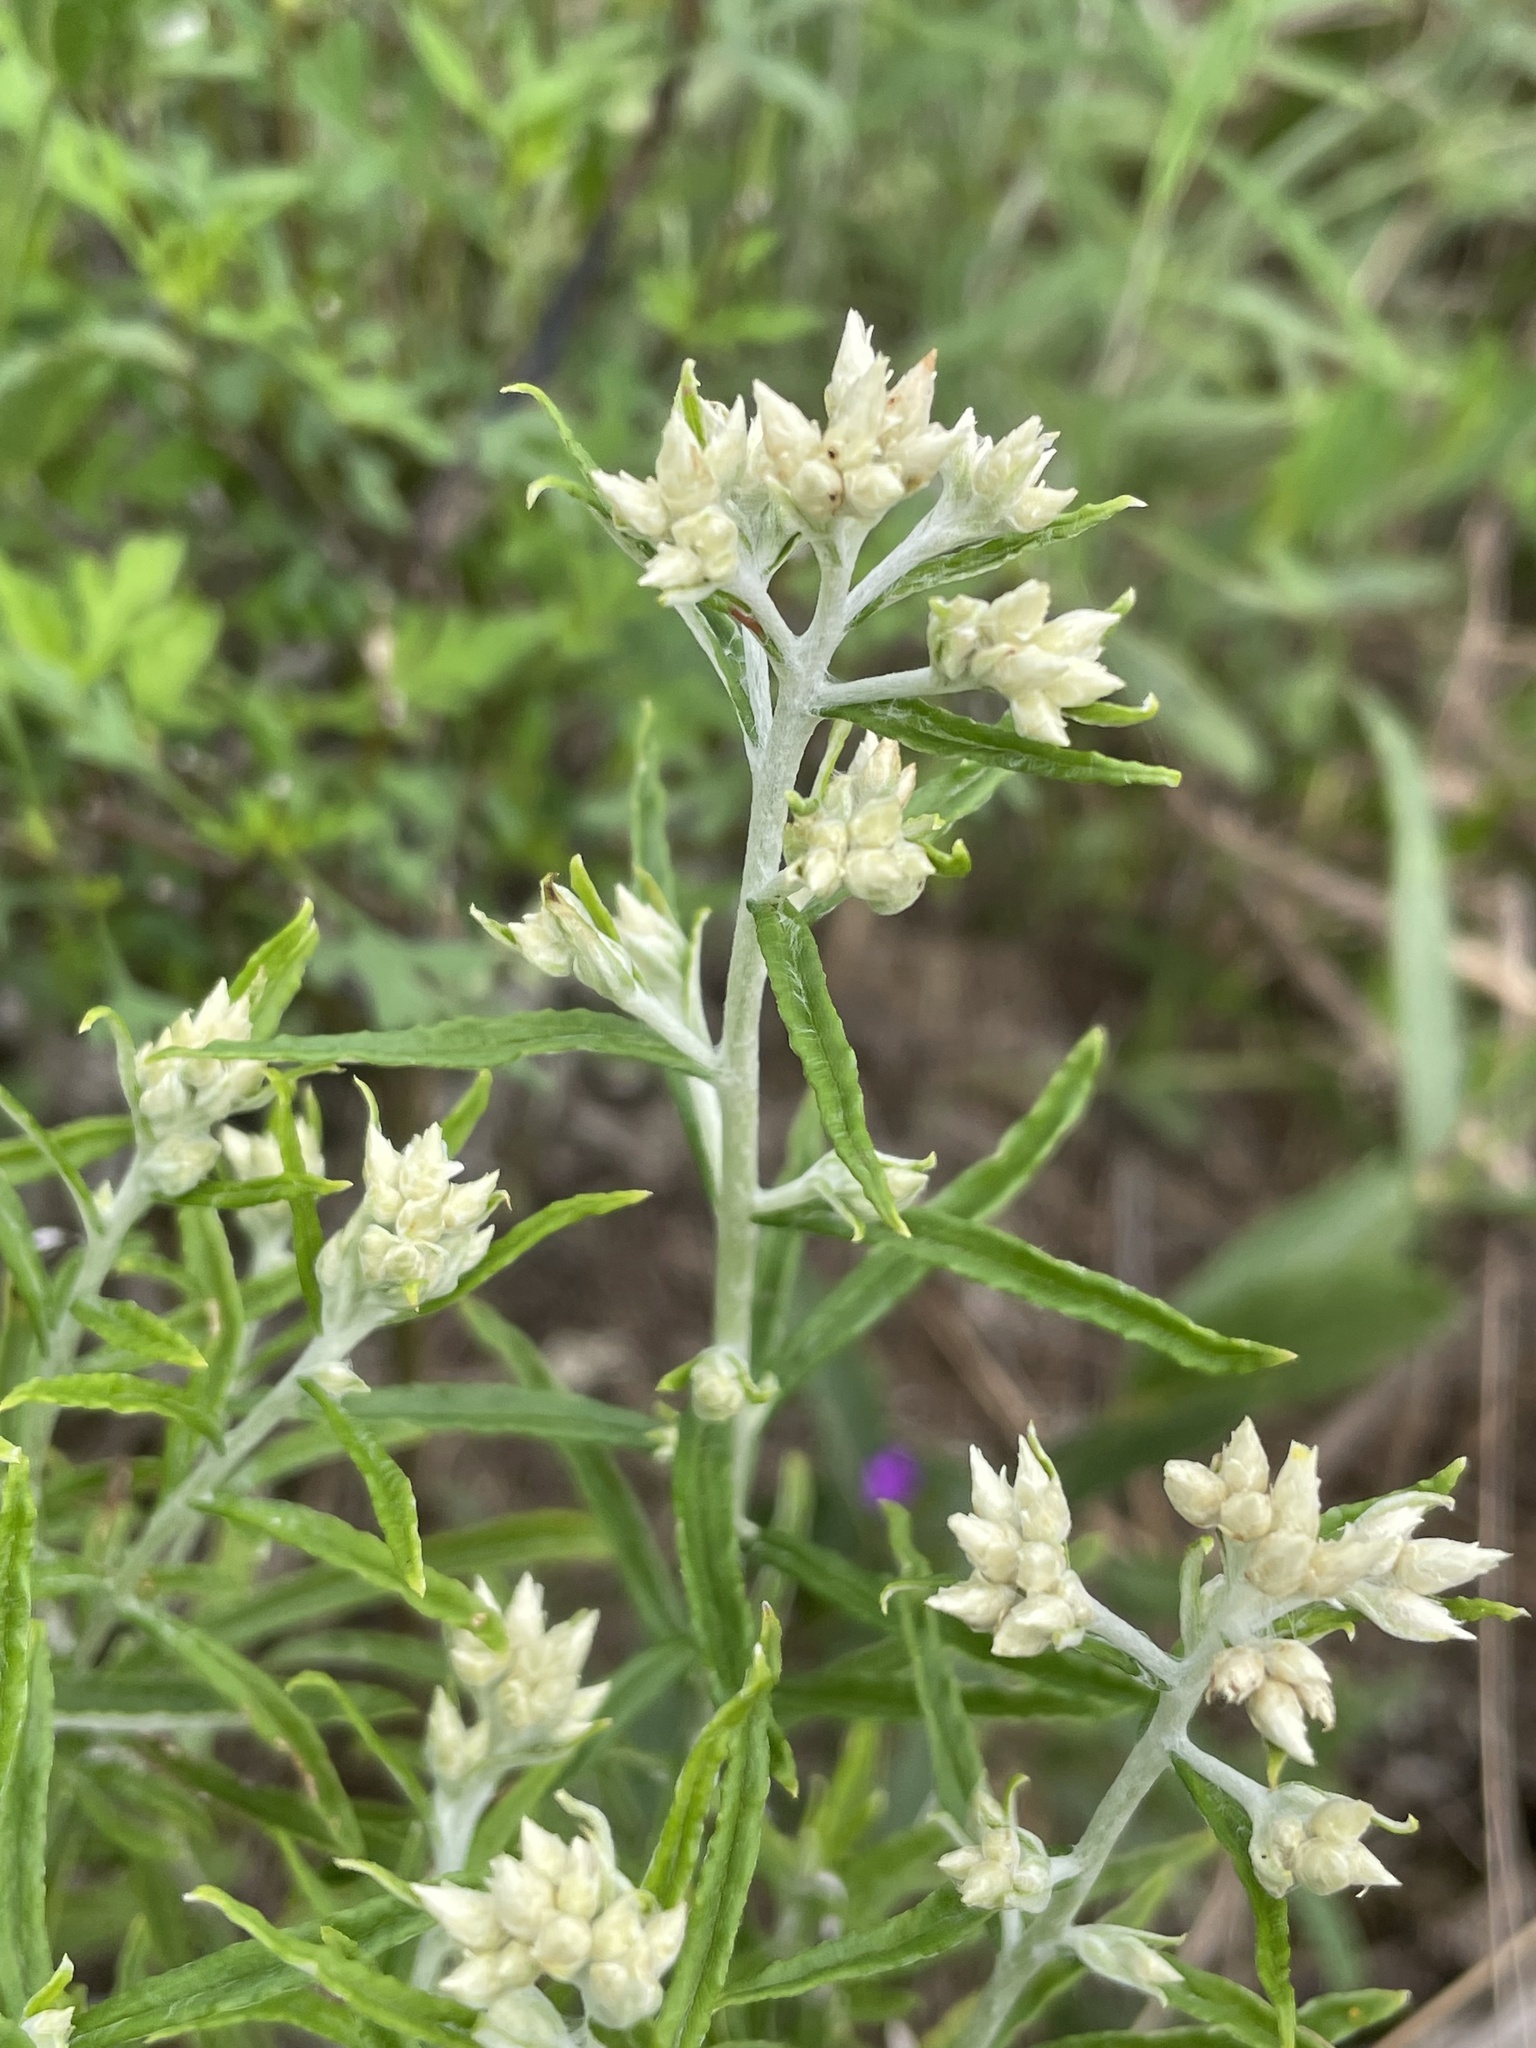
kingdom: Plantae
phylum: Tracheophyta
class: Magnoliopsida
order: Asterales
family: Asteraceae
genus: Pseudognaphalium
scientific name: Pseudognaphalium obtusifolium
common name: Eastern rabbit-tobacco
